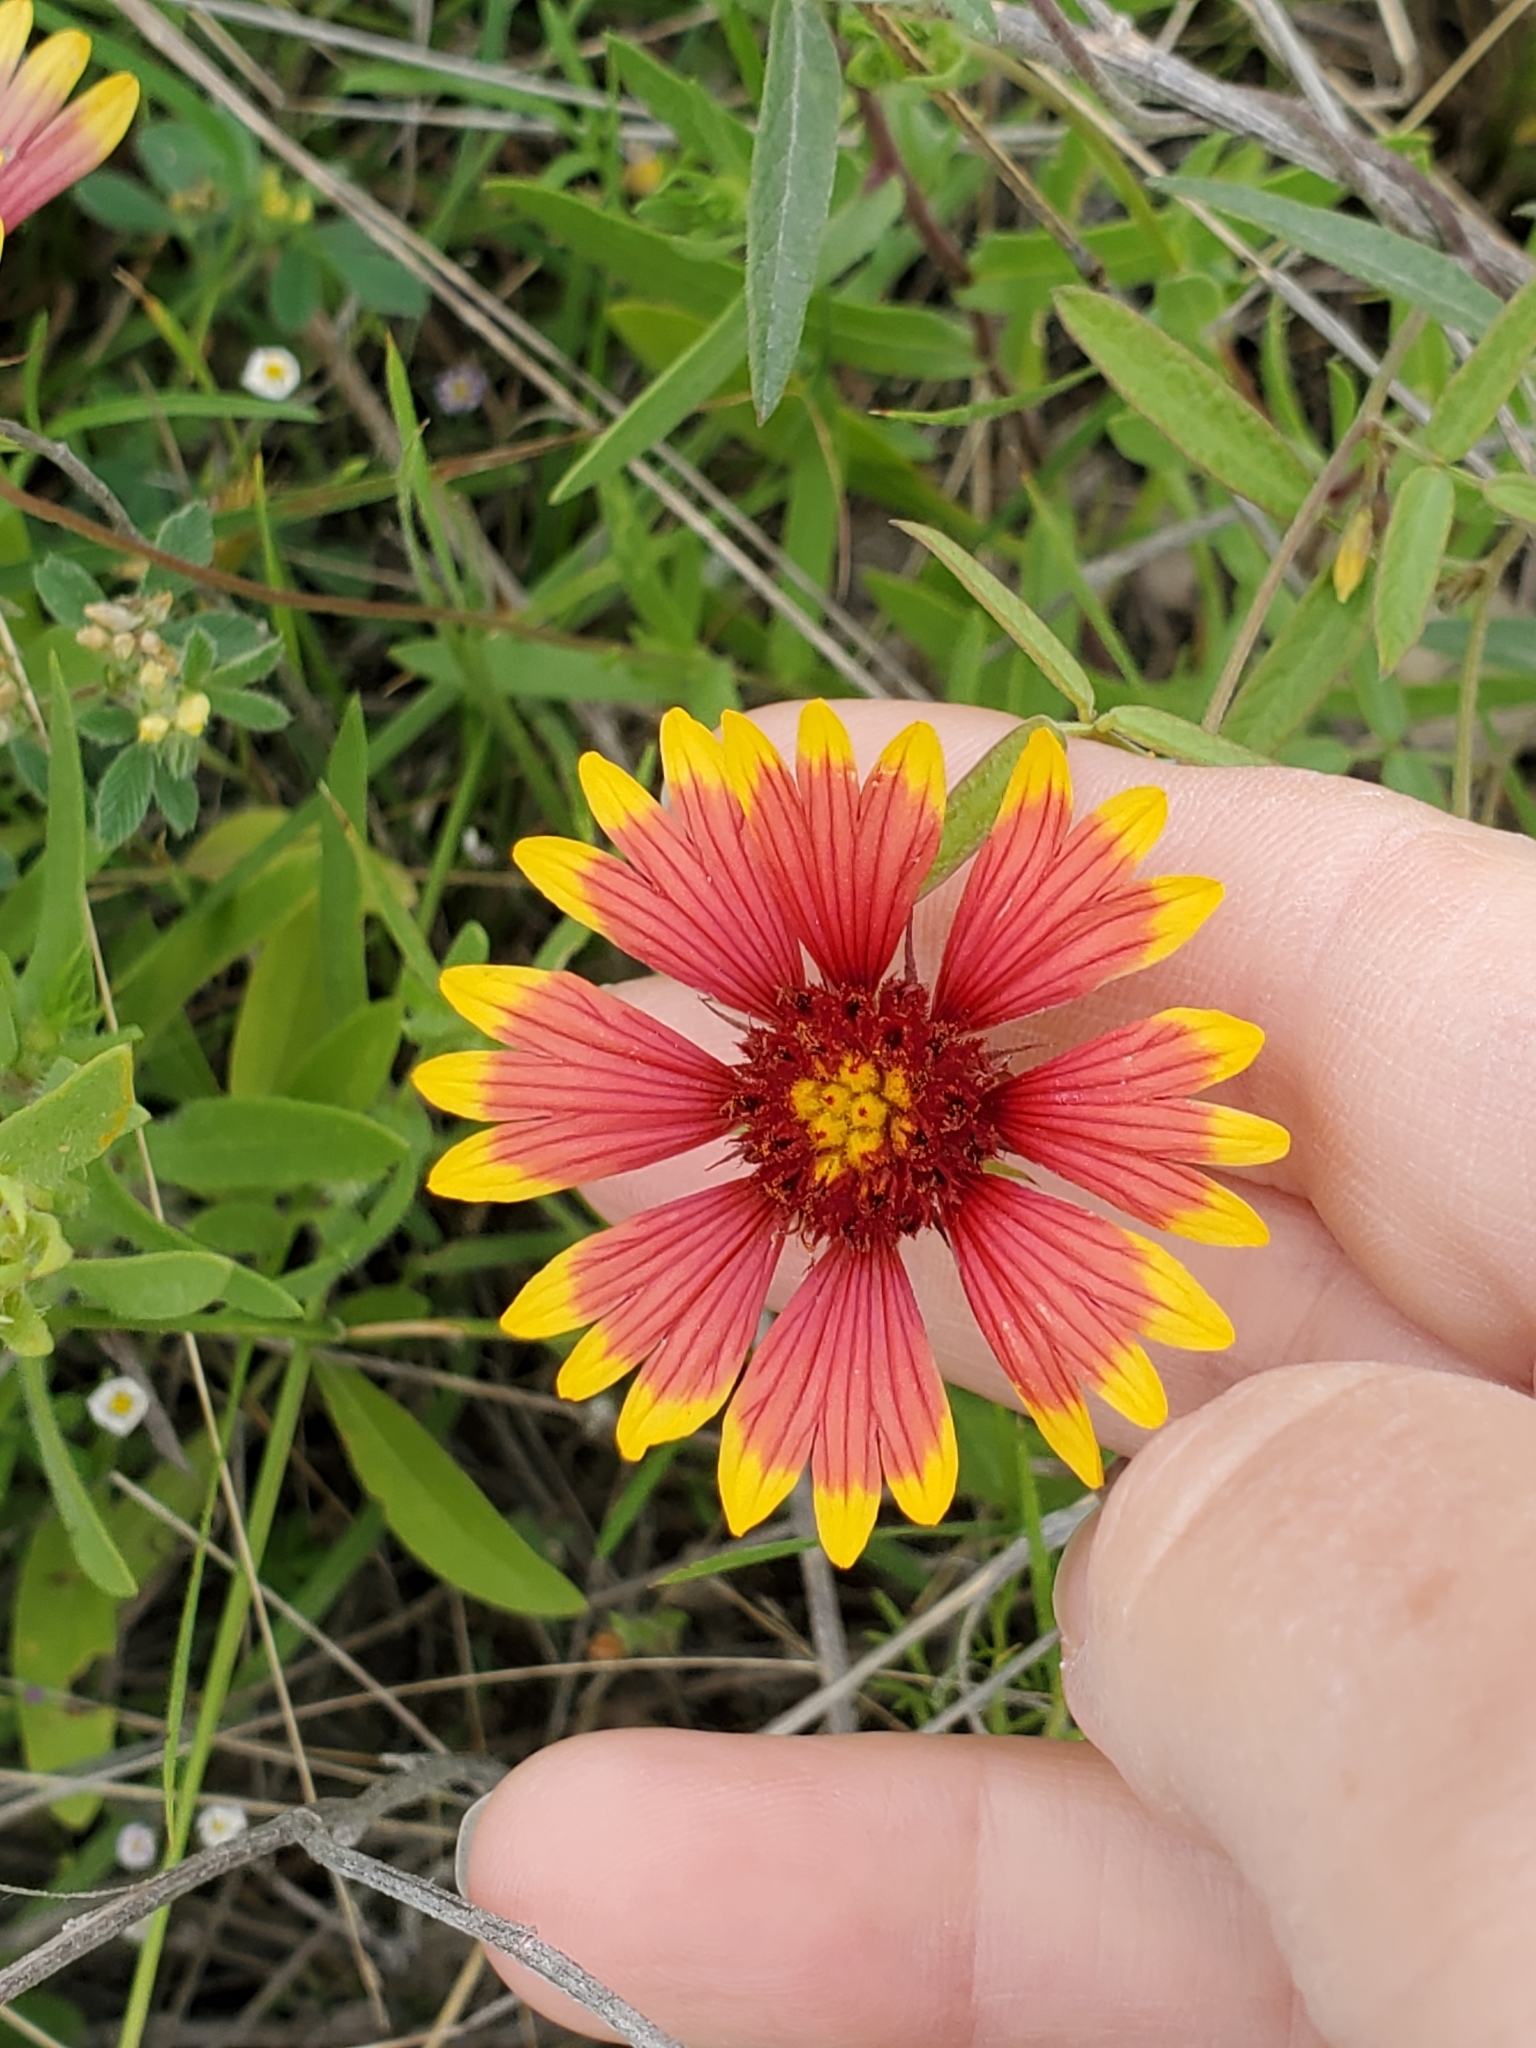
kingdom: Plantae
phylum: Tracheophyta
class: Magnoliopsida
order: Asterales
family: Asteraceae
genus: Gaillardia
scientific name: Gaillardia pulchella
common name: Firewheel
